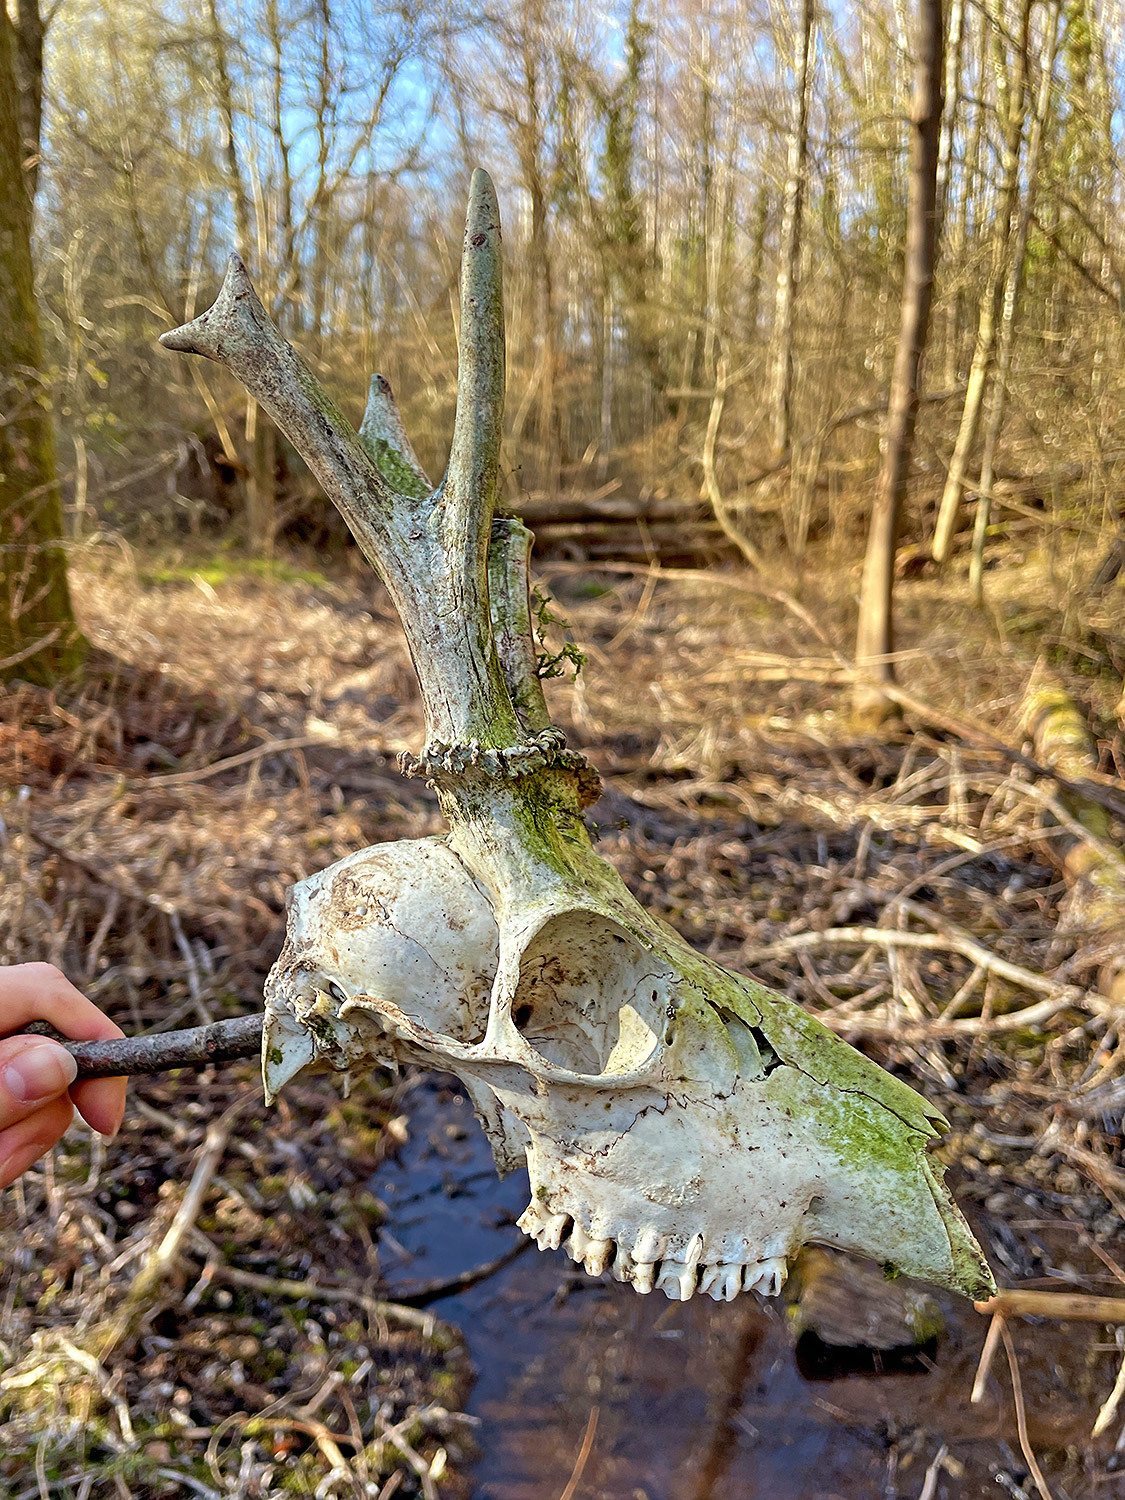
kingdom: Animalia
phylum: Chordata
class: Mammalia
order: Artiodactyla
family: Cervidae
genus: Capreolus
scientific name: Capreolus capreolus
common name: Western roe deer
